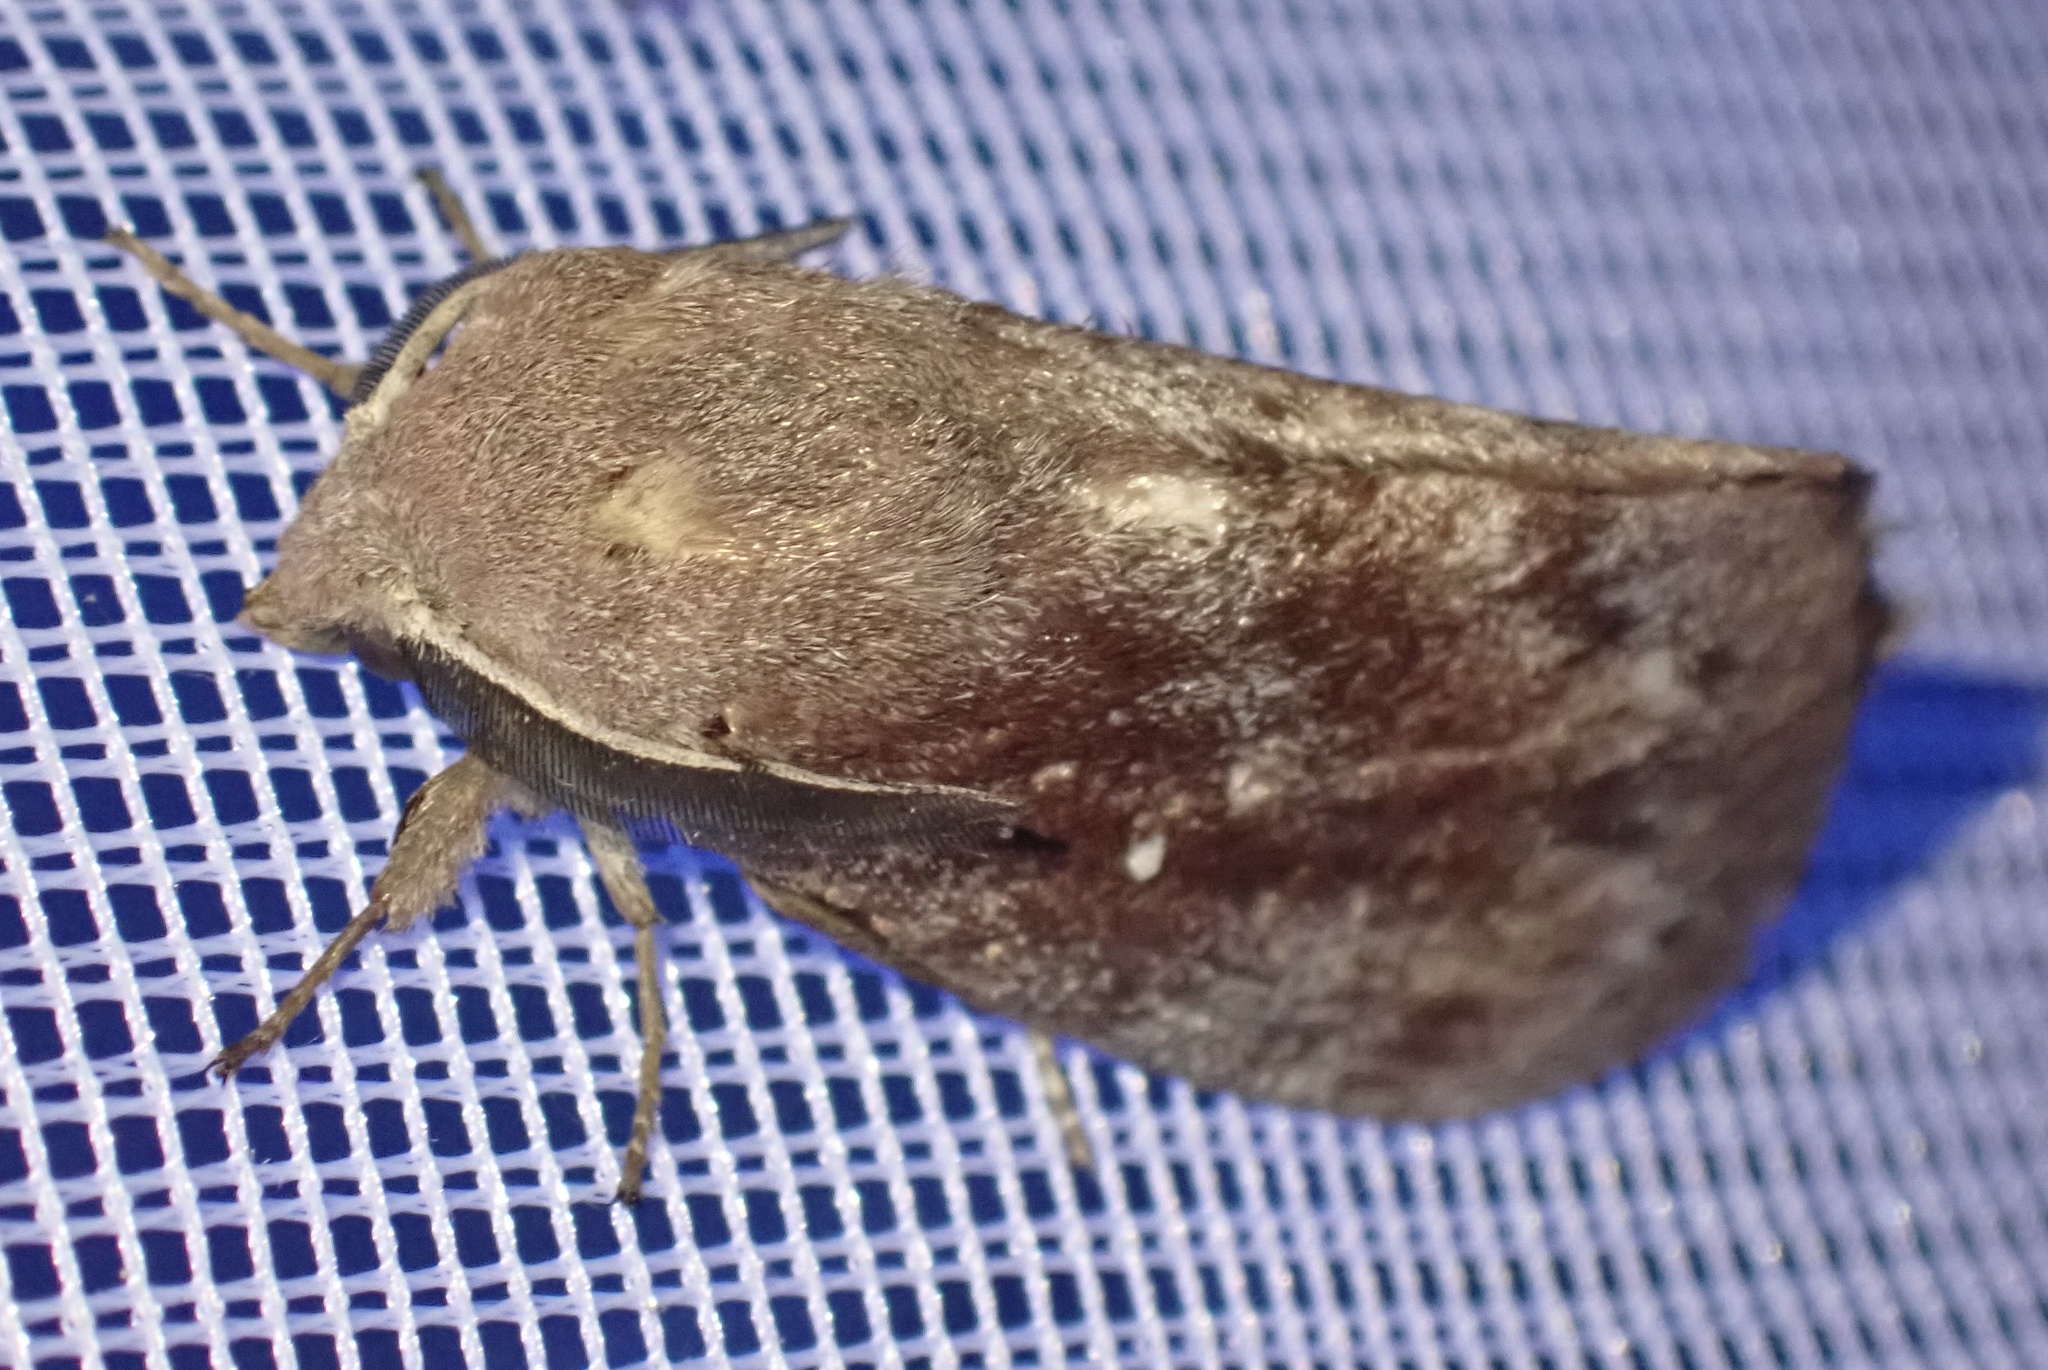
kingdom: Animalia
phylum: Arthropoda
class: Insecta
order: Lepidoptera
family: Lasiocampidae
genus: Dendrolimus
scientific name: Dendrolimus pini
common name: Pine-tree lappet
